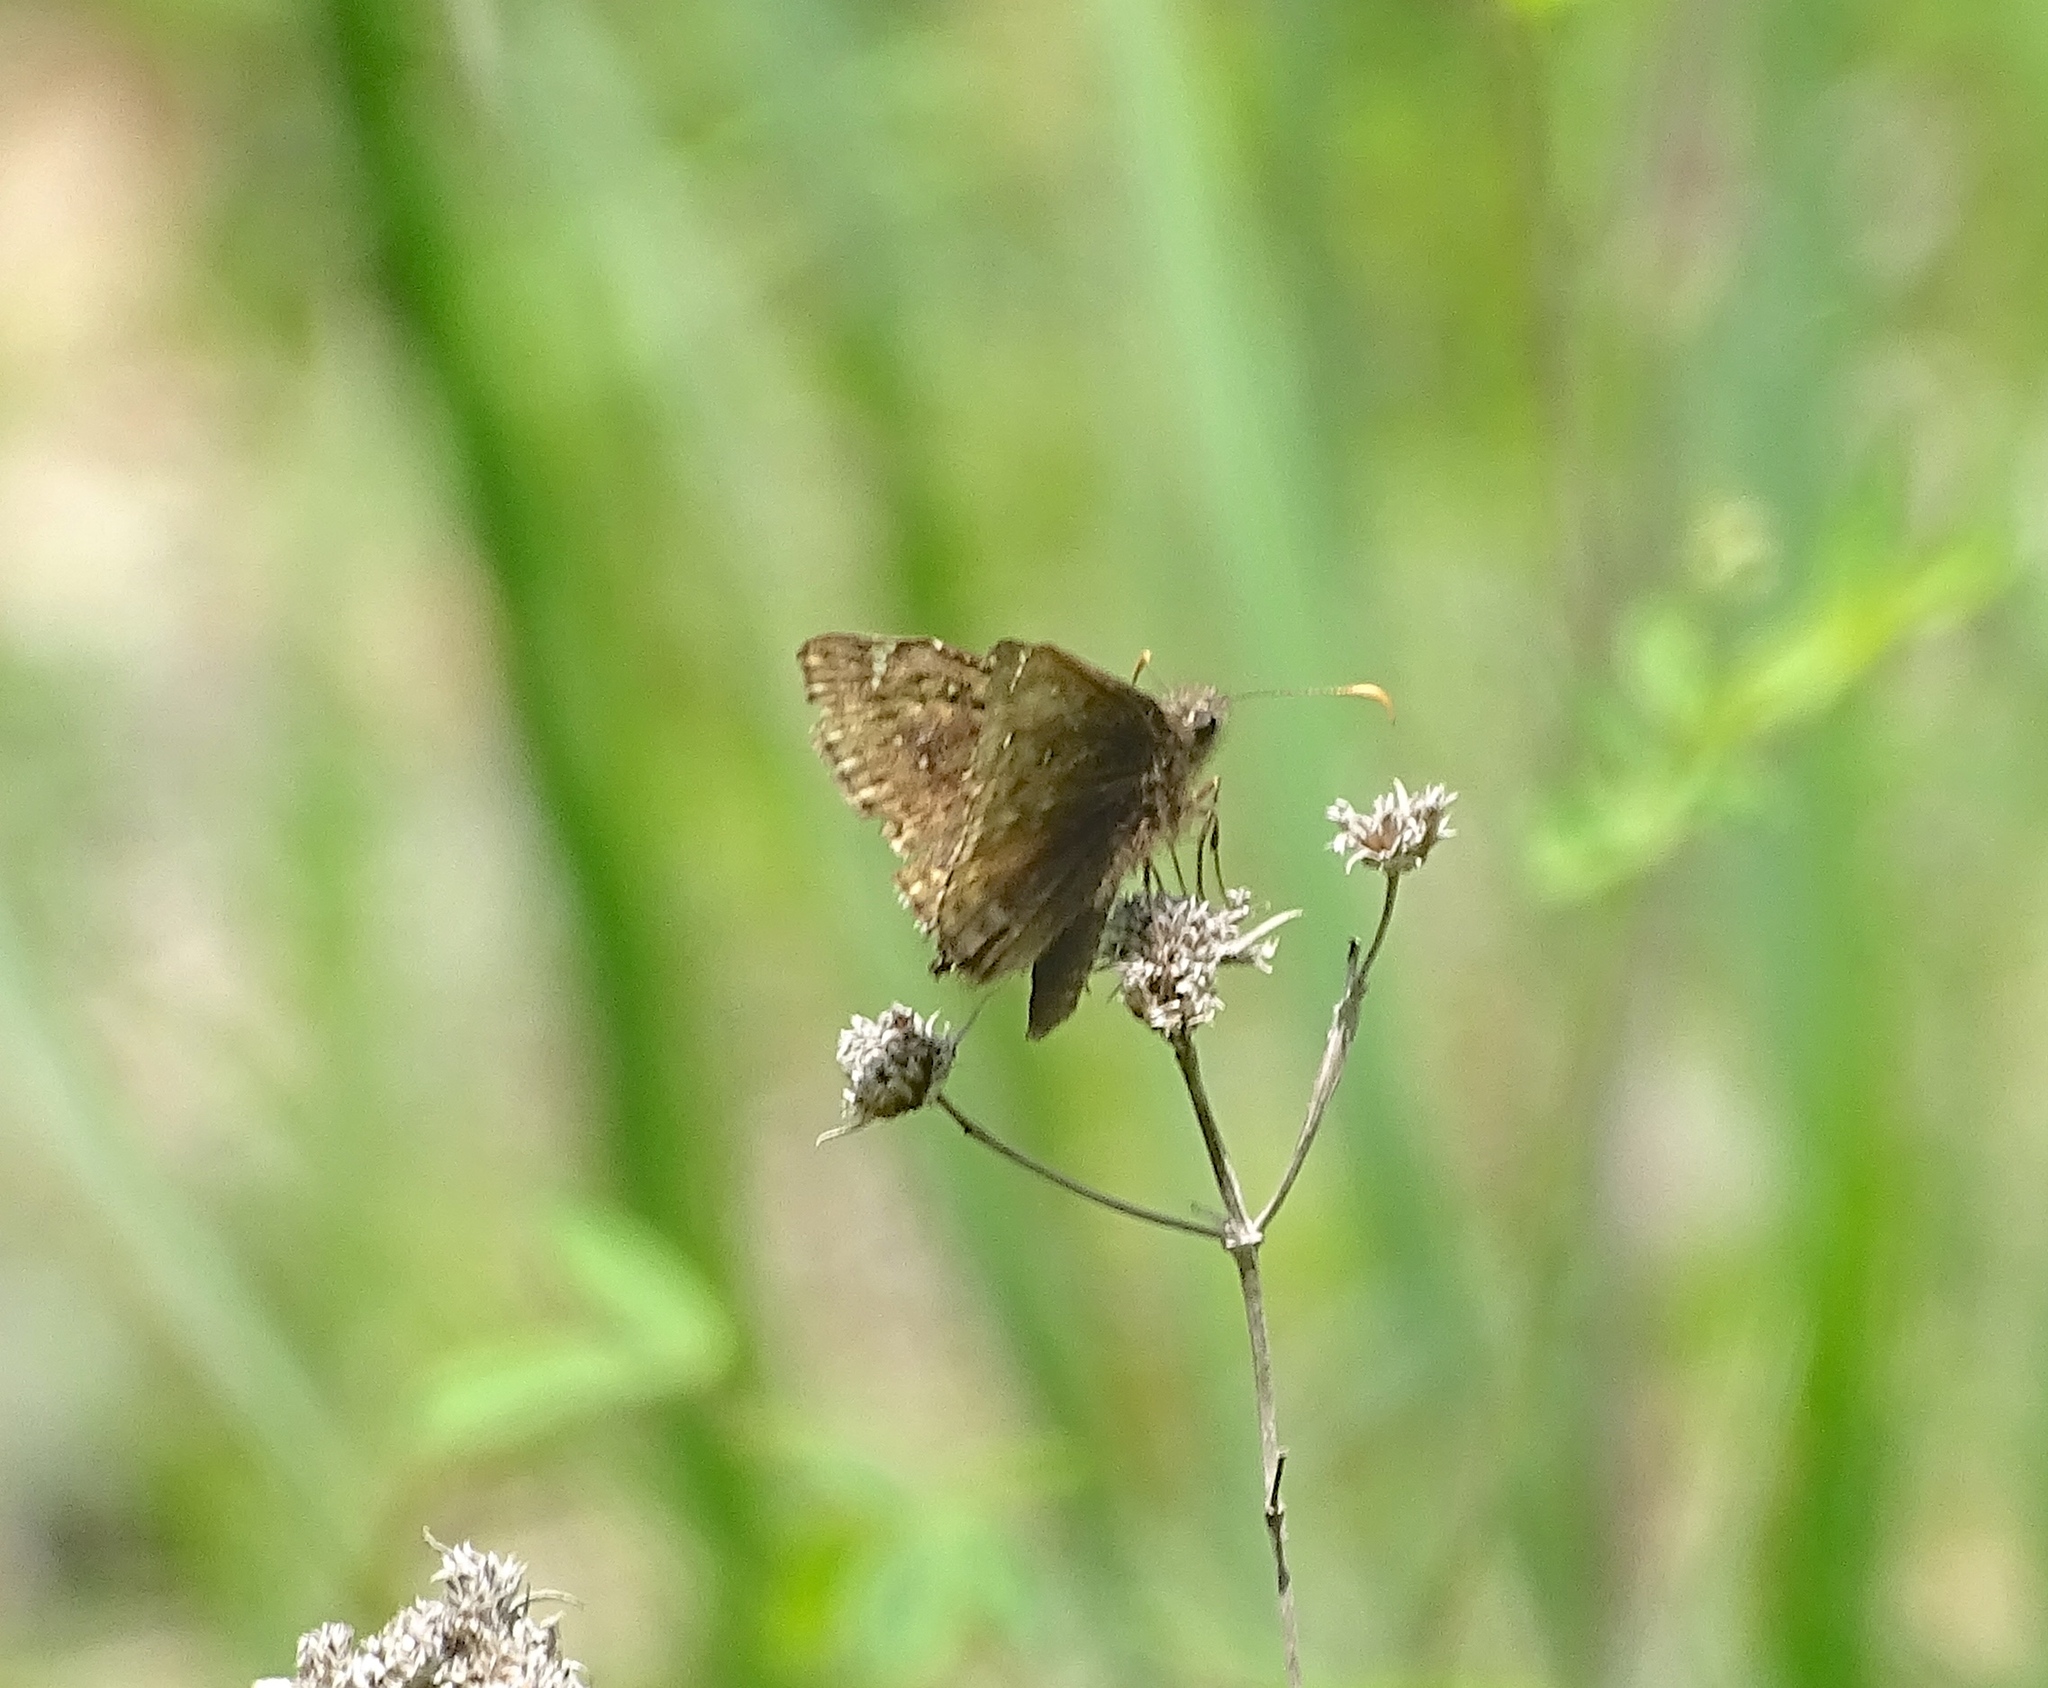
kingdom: Animalia
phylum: Arthropoda
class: Insecta
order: Lepidoptera
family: Hesperiidae
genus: Erynnis
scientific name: Erynnis juvenalis
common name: Juvenal's duskywing
